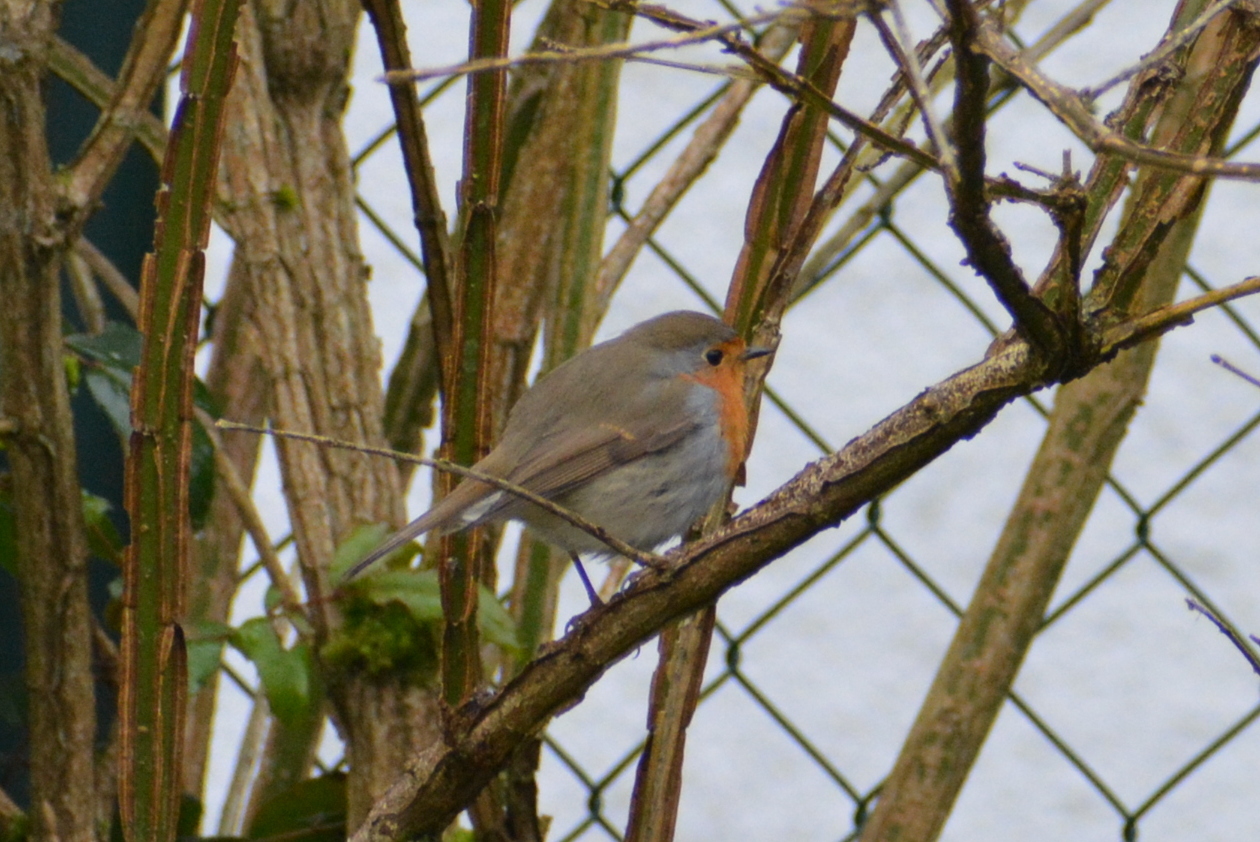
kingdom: Animalia
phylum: Chordata
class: Aves
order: Passeriformes
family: Muscicapidae
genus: Erithacus
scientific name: Erithacus rubecula
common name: European robin
